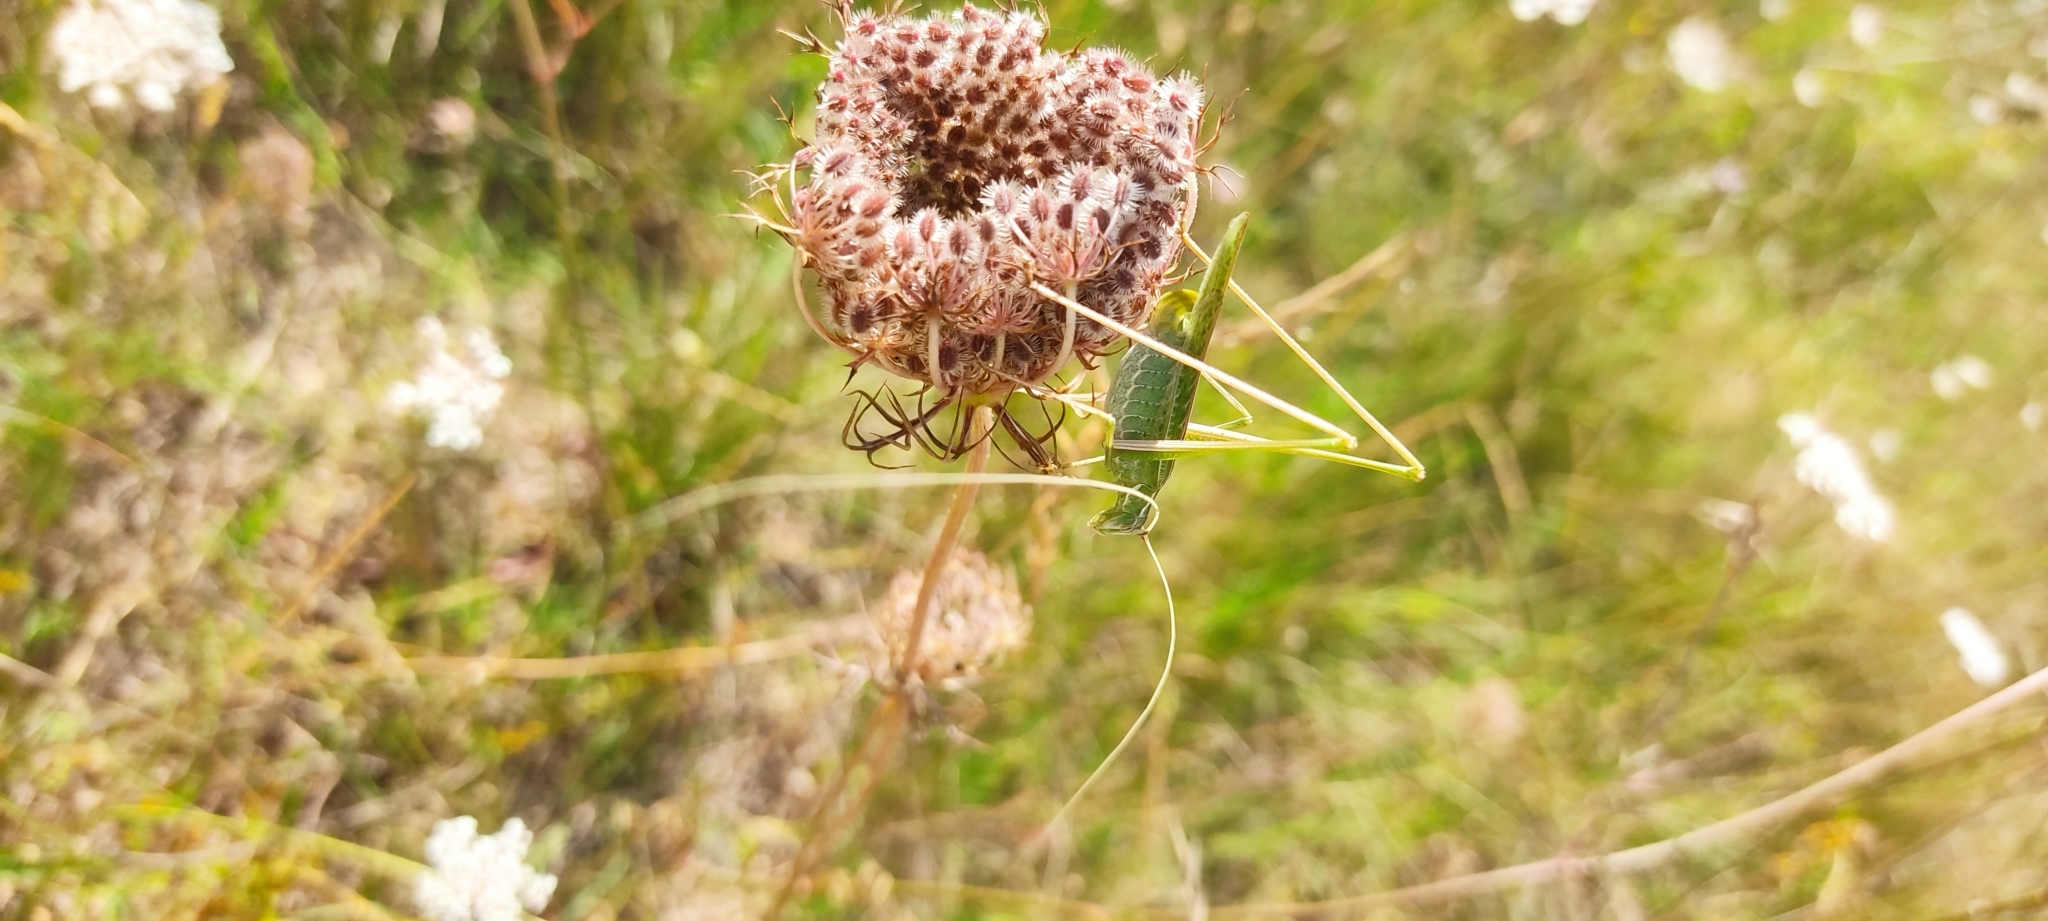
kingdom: Animalia
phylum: Arthropoda
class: Insecta
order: Orthoptera
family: Tettigoniidae
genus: Tylopsis
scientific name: Tylopsis lilifolia
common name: Lily bush-cricket
